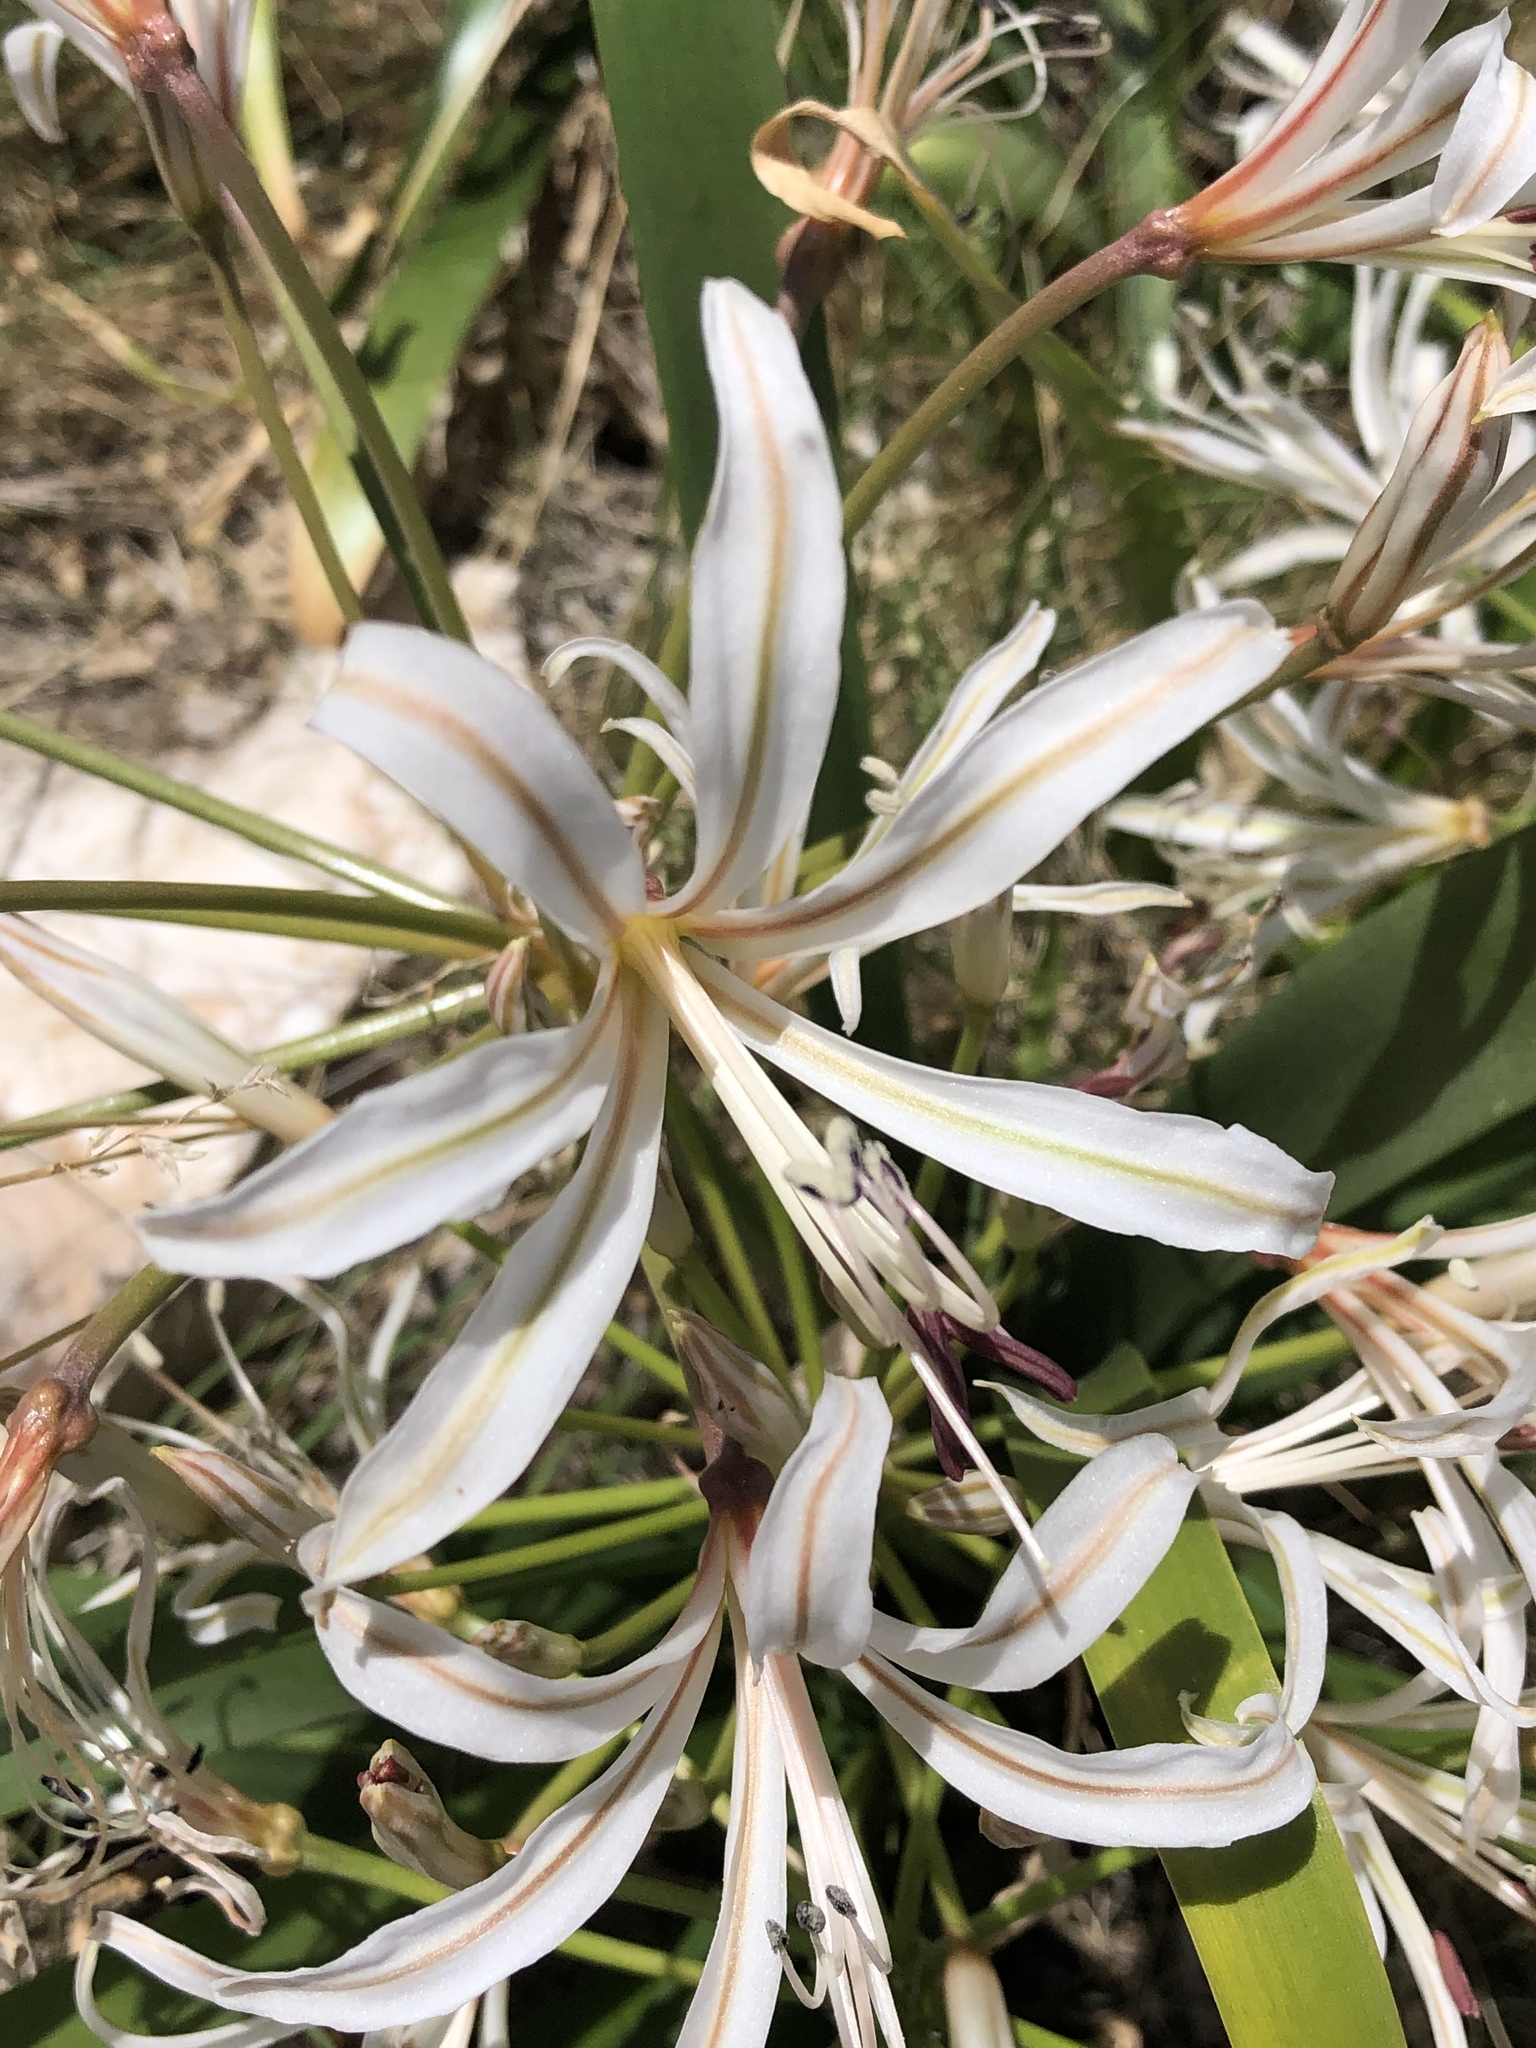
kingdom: Plantae
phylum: Tracheophyta
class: Liliopsida
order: Asparagales
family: Amaryllidaceae
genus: Nerine
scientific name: Nerine laticoma
